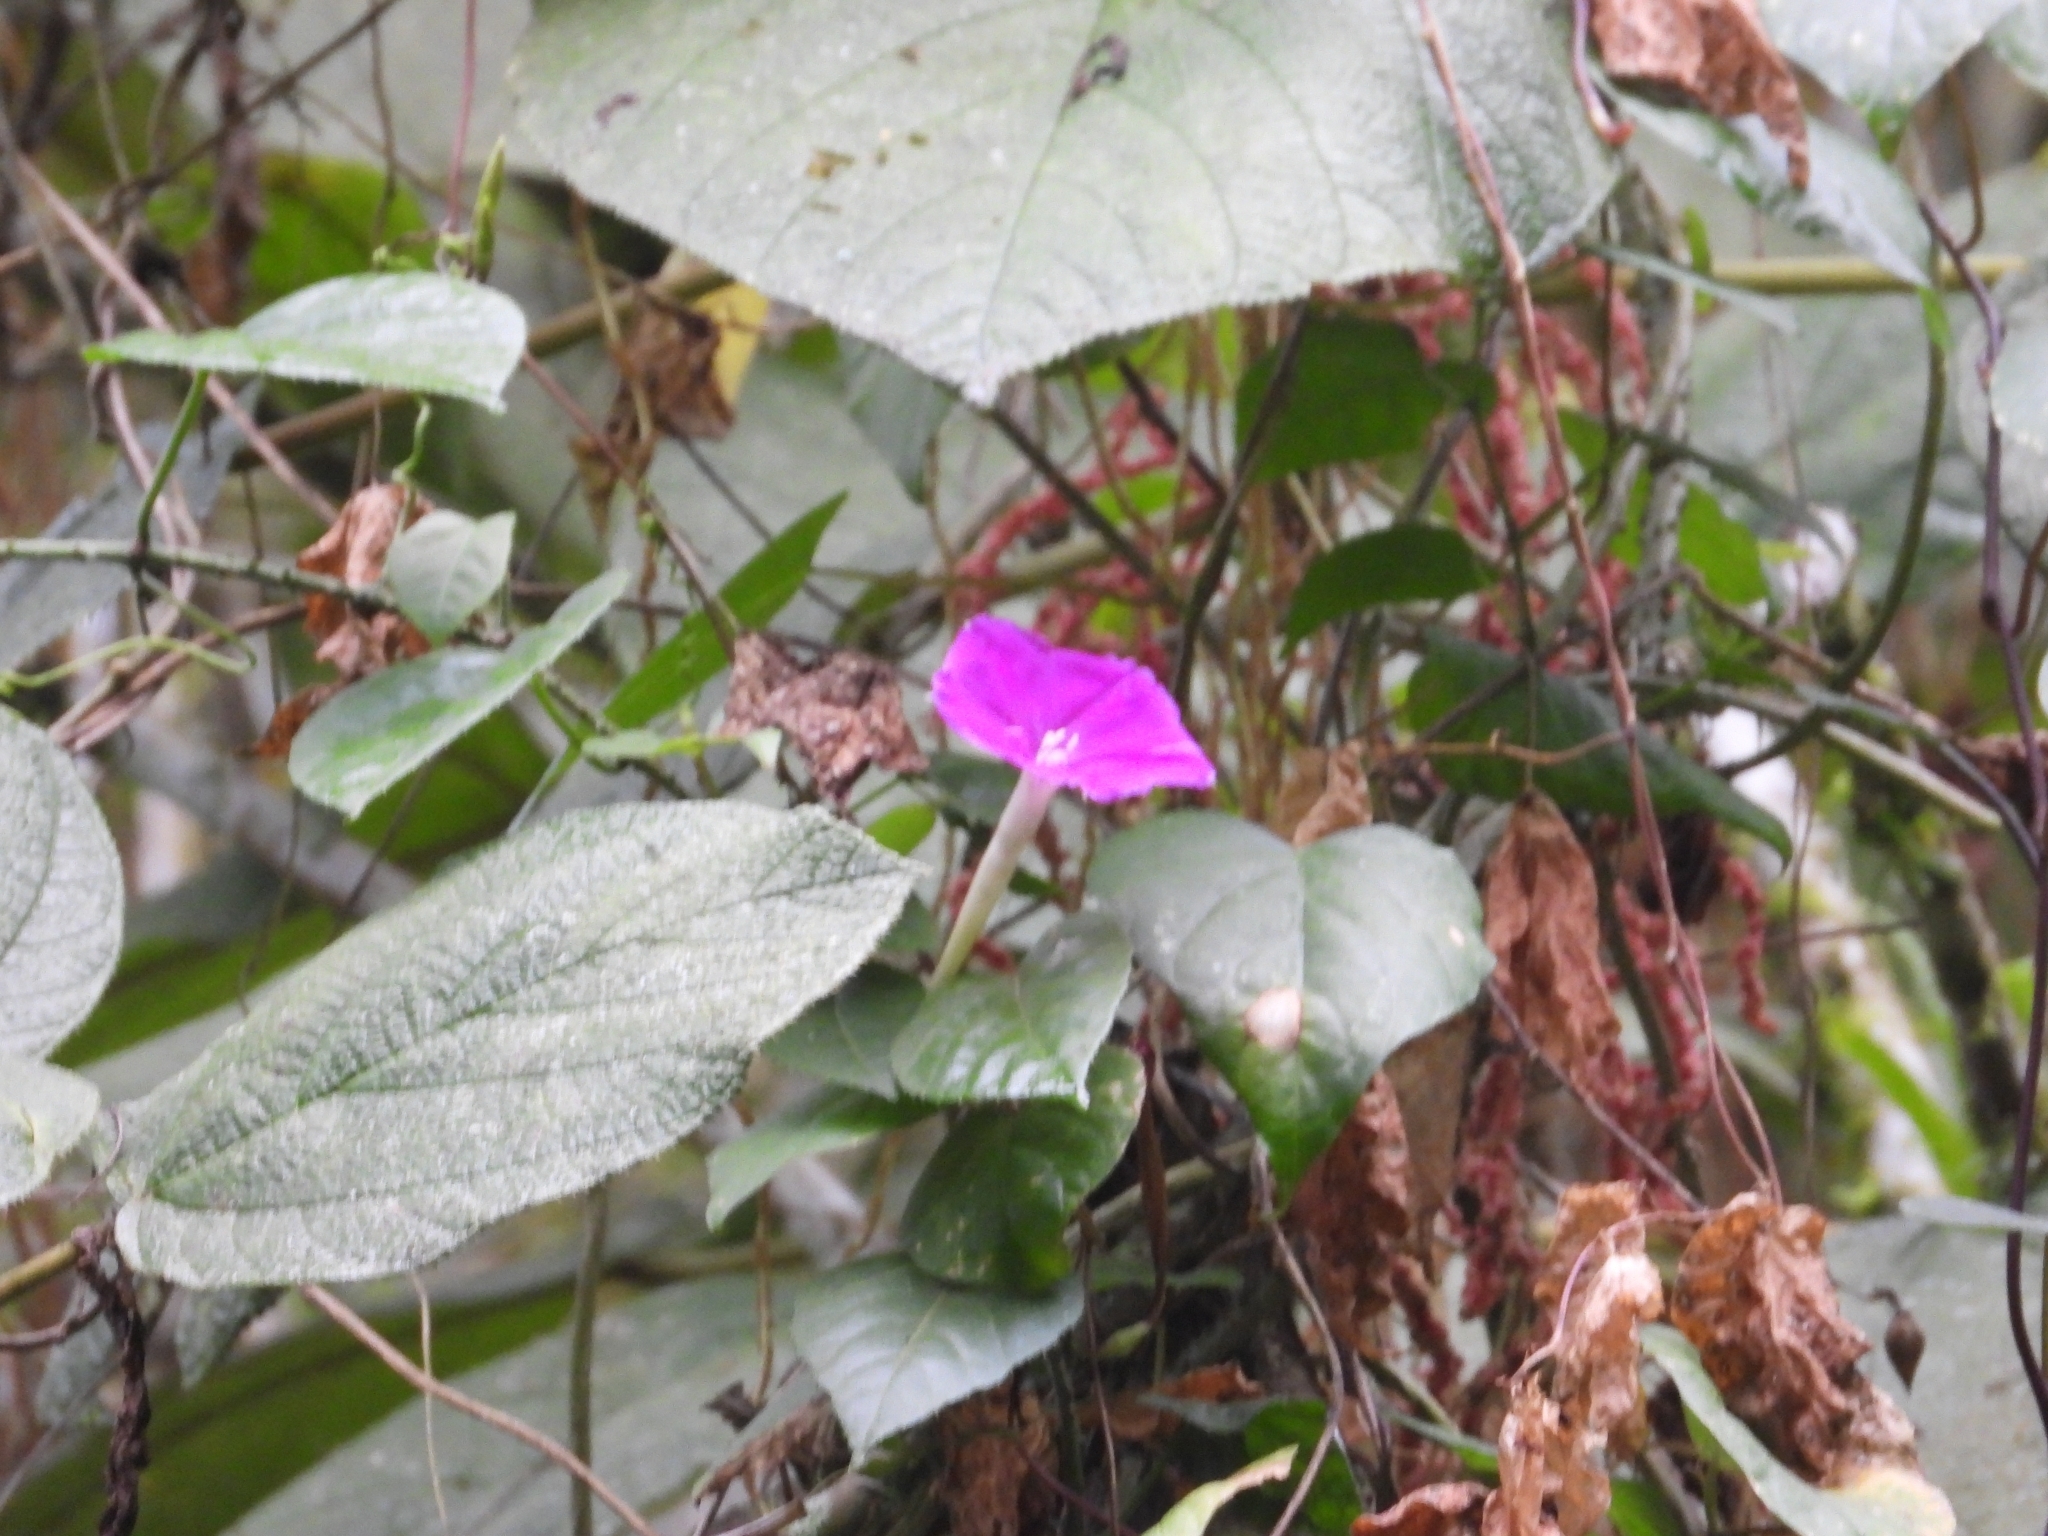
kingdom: Plantae
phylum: Tracheophyta
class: Magnoliopsida
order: Solanales
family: Convolvulaceae
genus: Ipomoea
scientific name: Ipomoea dumosa
